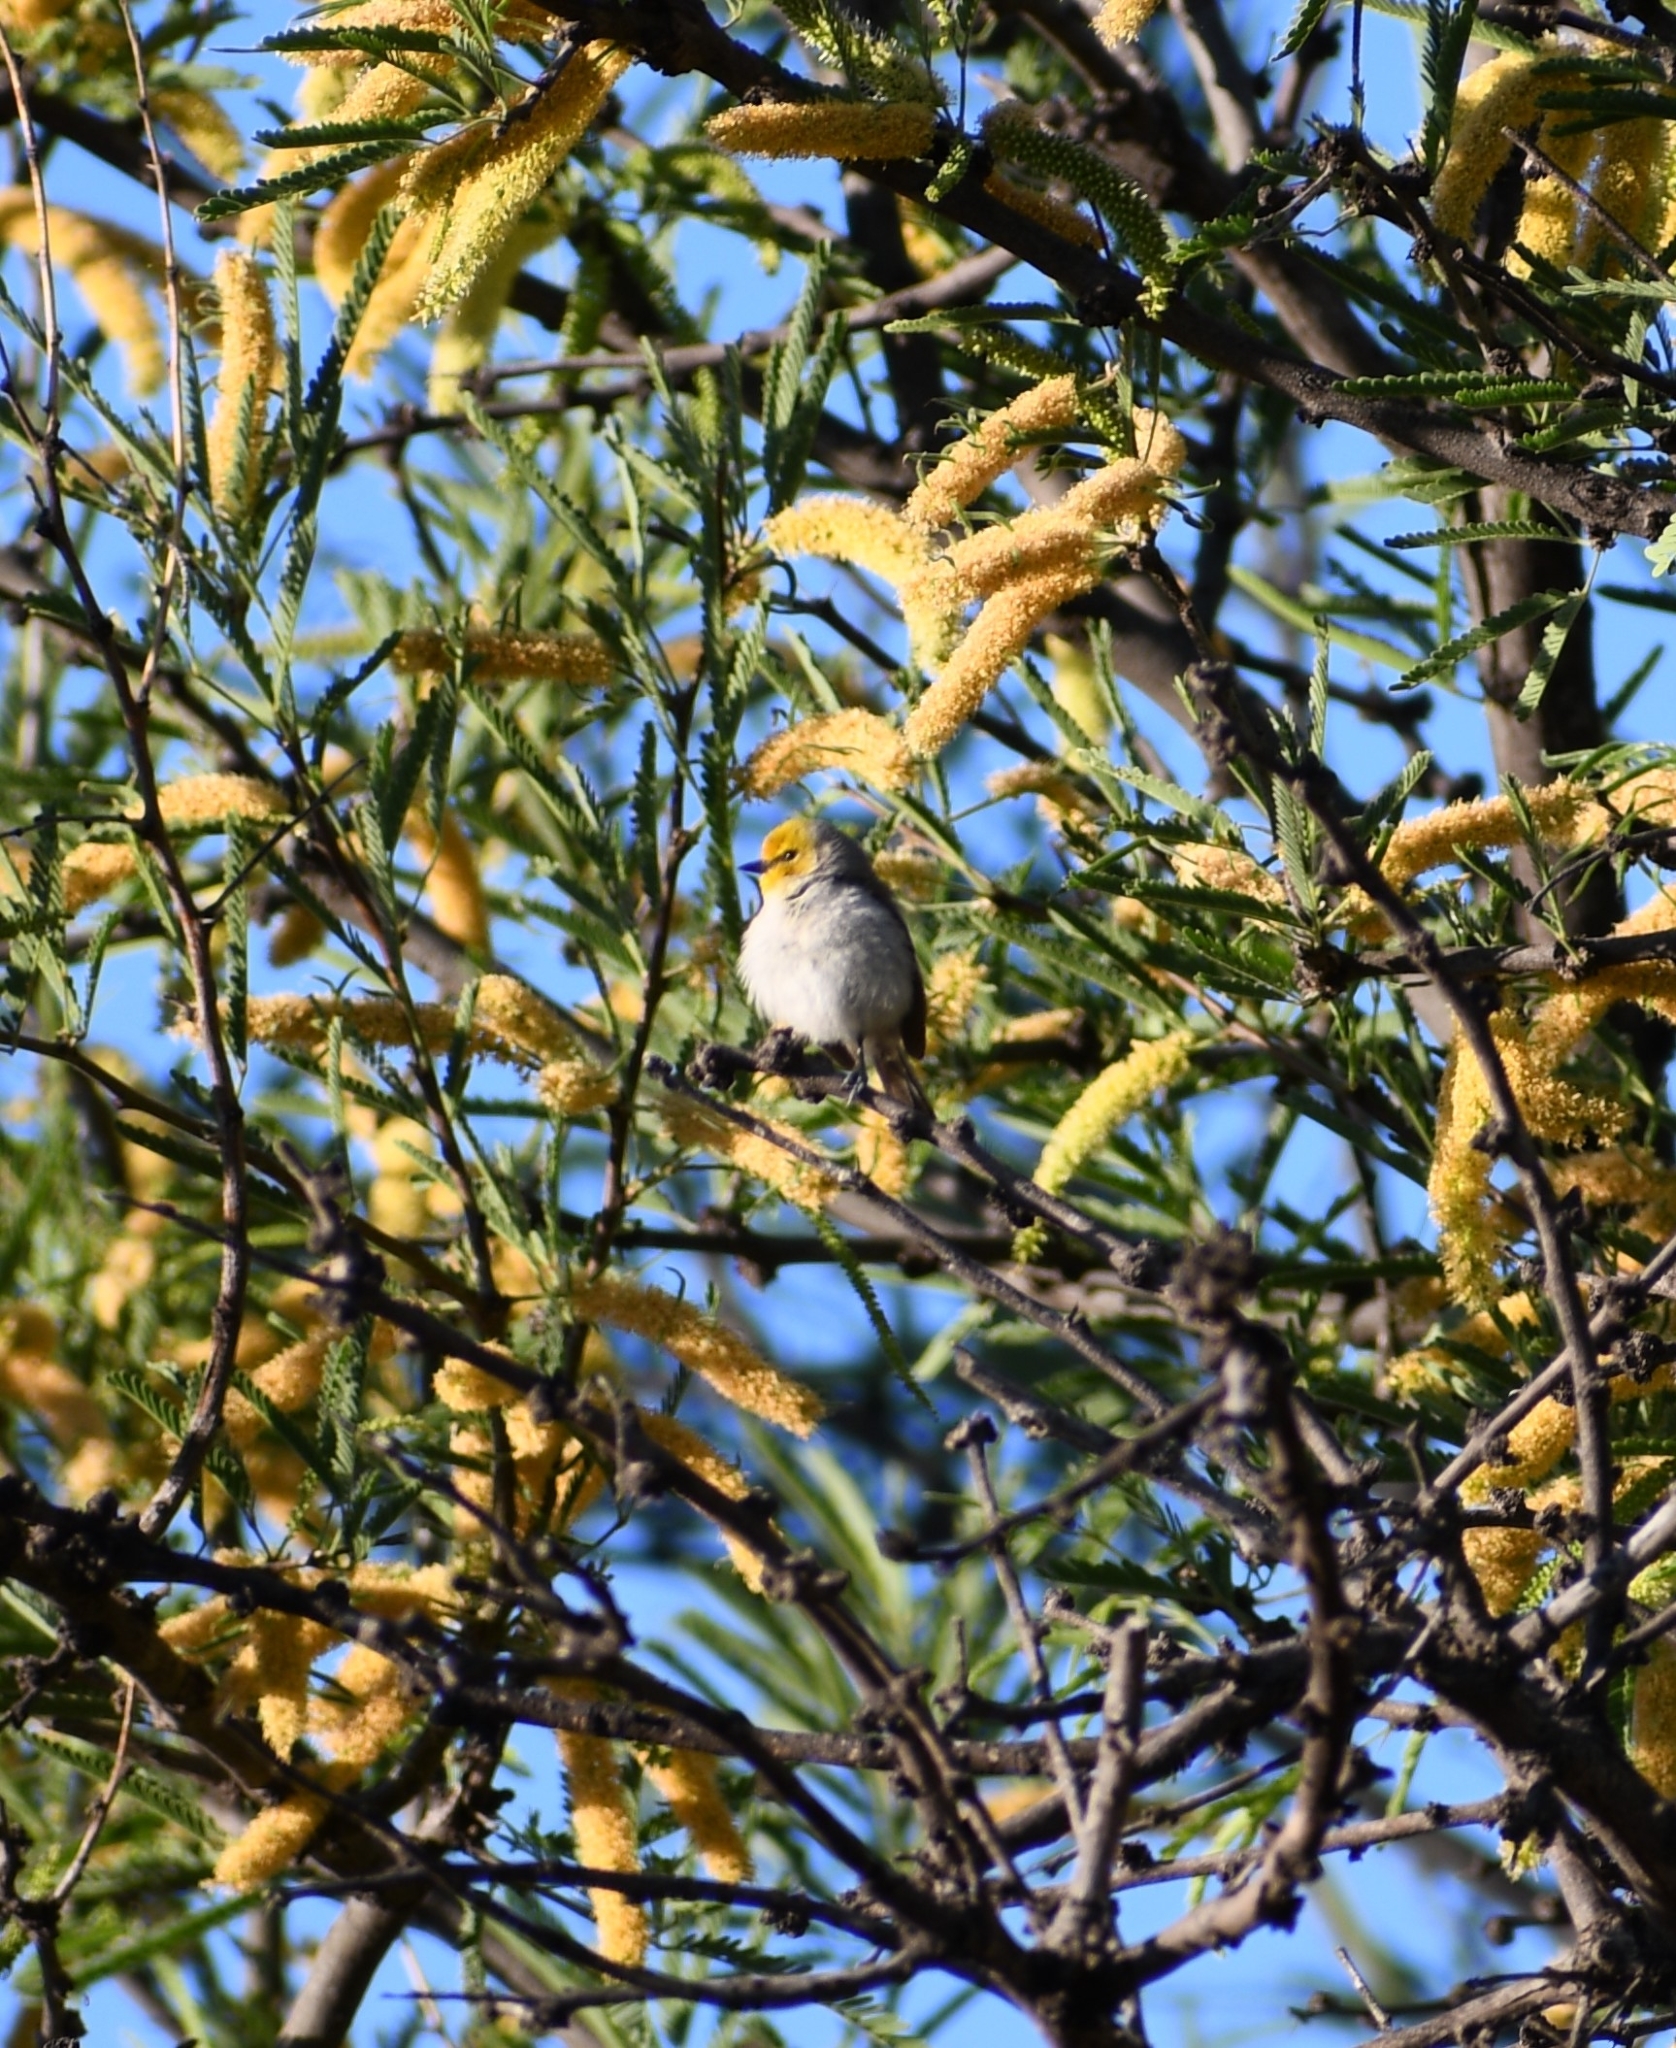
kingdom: Animalia
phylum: Chordata
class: Aves
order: Passeriformes
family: Remizidae
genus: Auriparus
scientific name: Auriparus flaviceps
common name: Verdin
